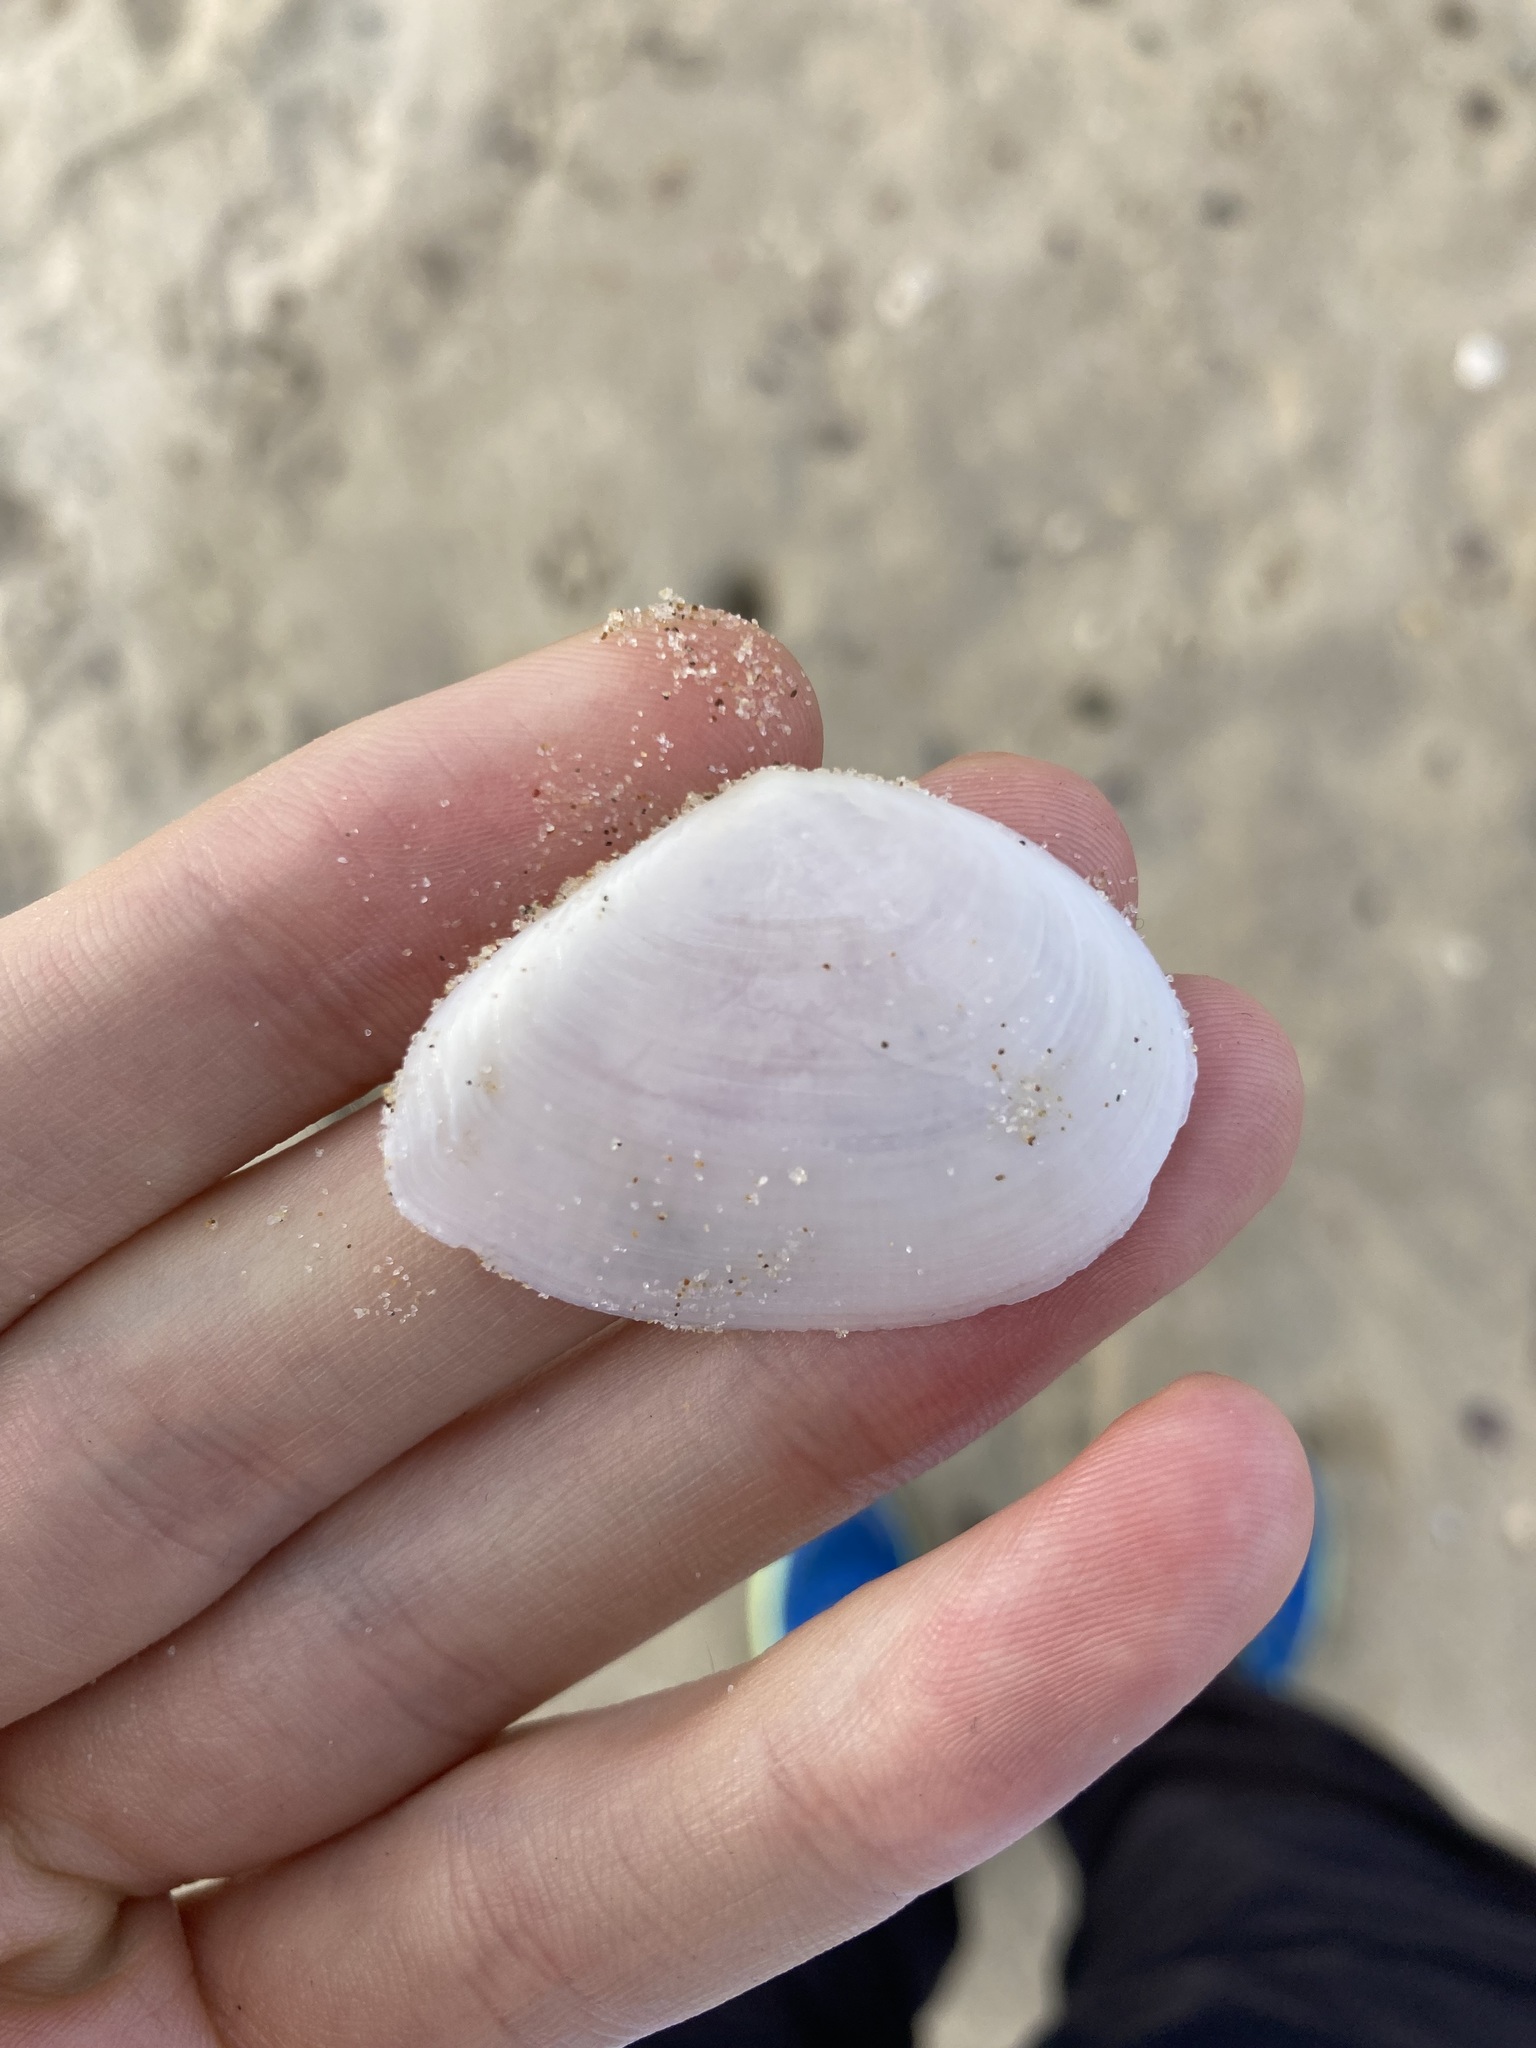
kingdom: Animalia
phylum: Mollusca
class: Bivalvia
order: Cardiida
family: Tellinidae
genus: Macomona
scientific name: Macomona deltoidalis
